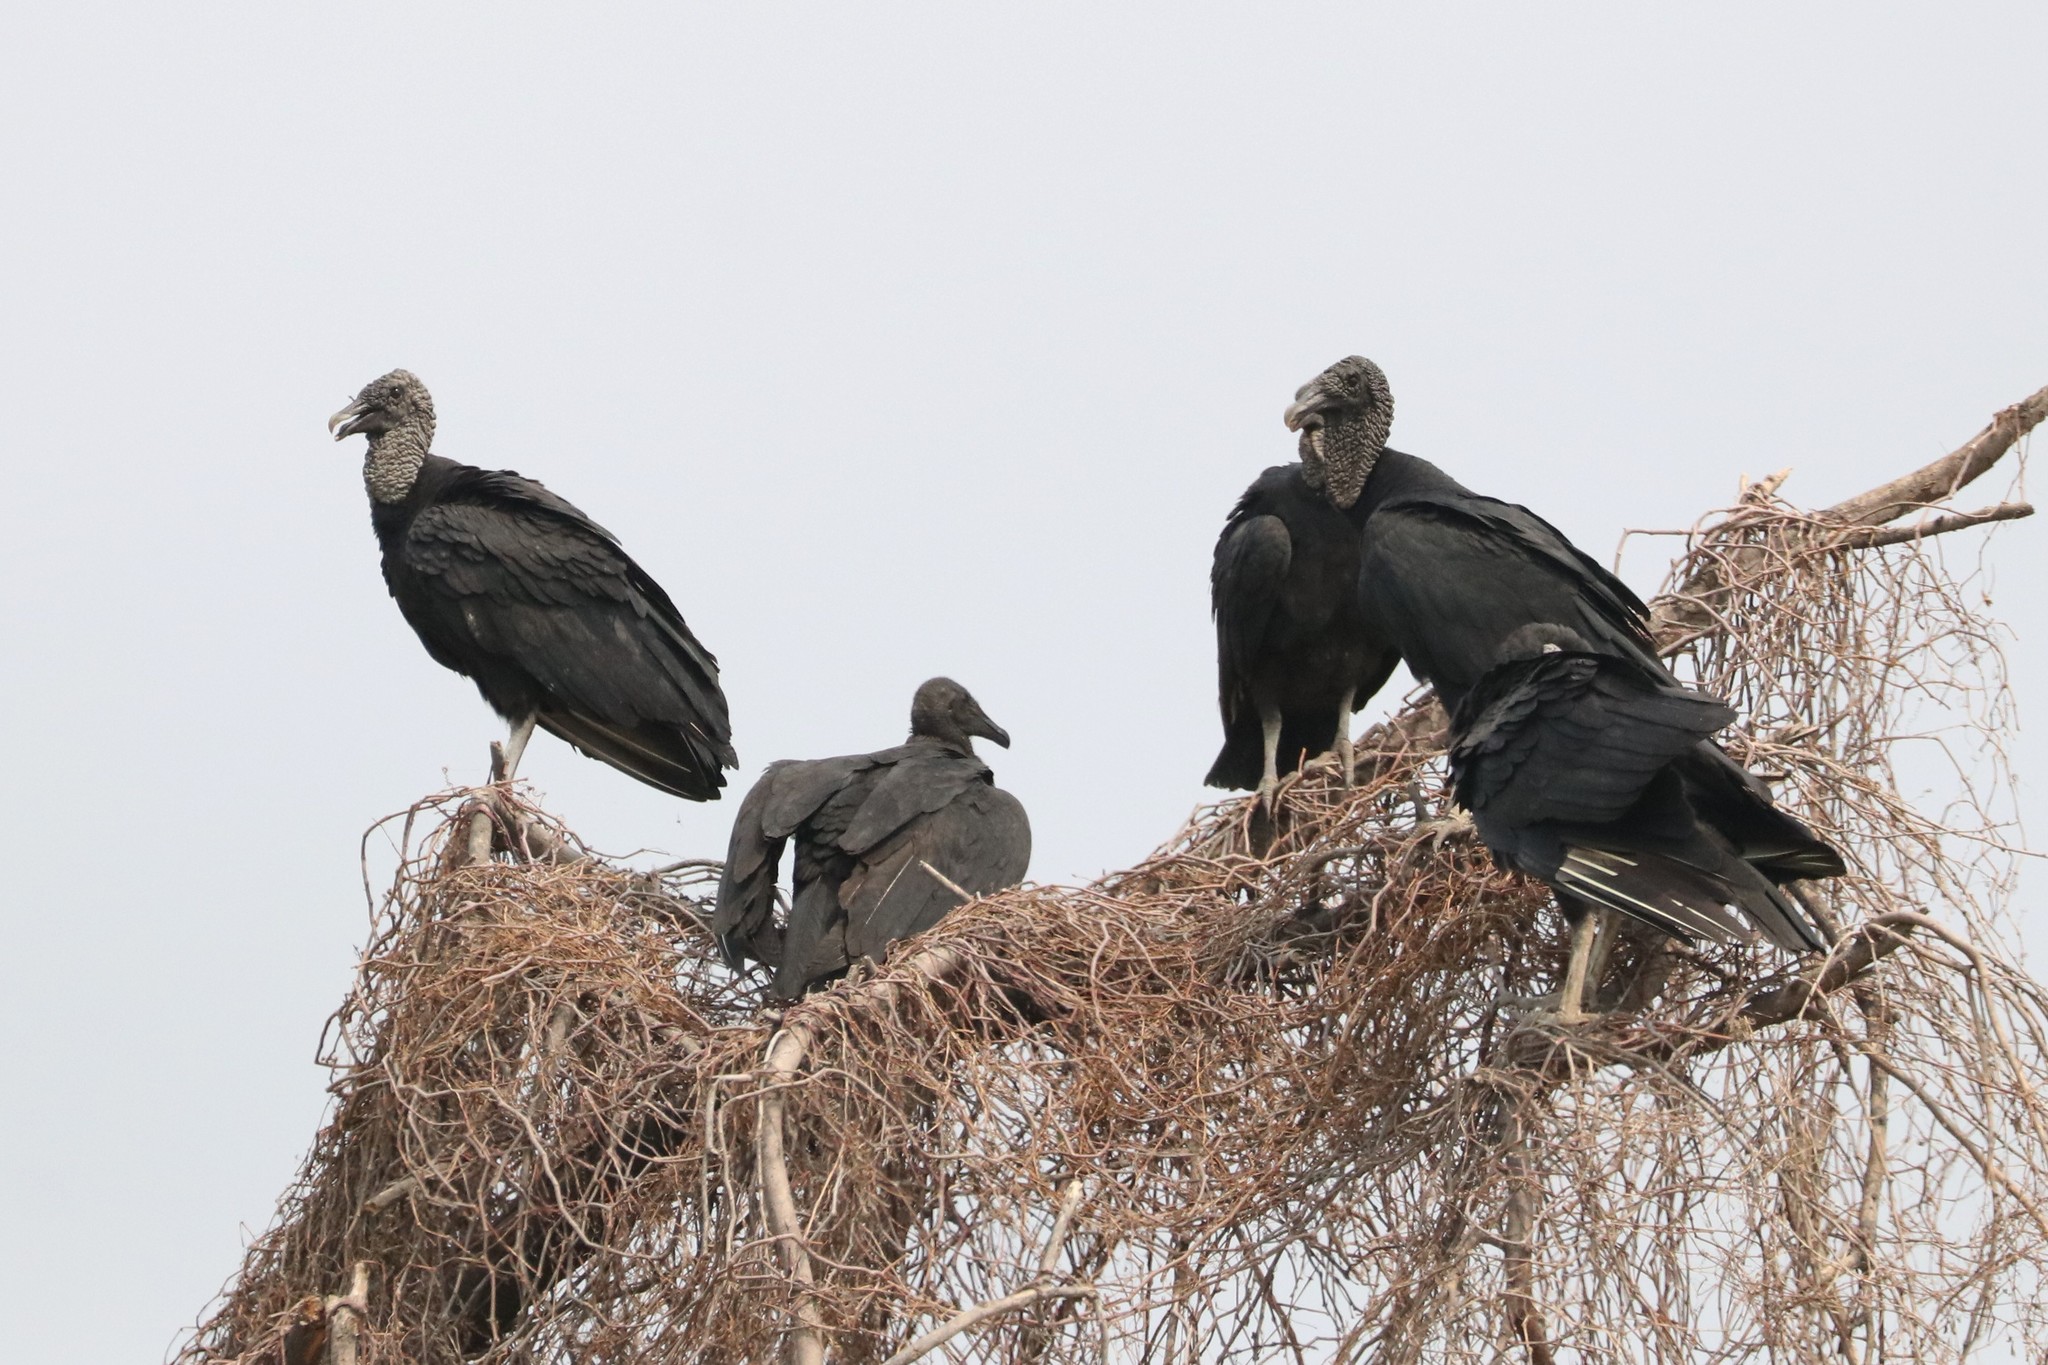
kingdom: Animalia
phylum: Chordata
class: Aves
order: Accipitriformes
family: Cathartidae
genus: Coragyps
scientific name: Coragyps atratus
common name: Black vulture
